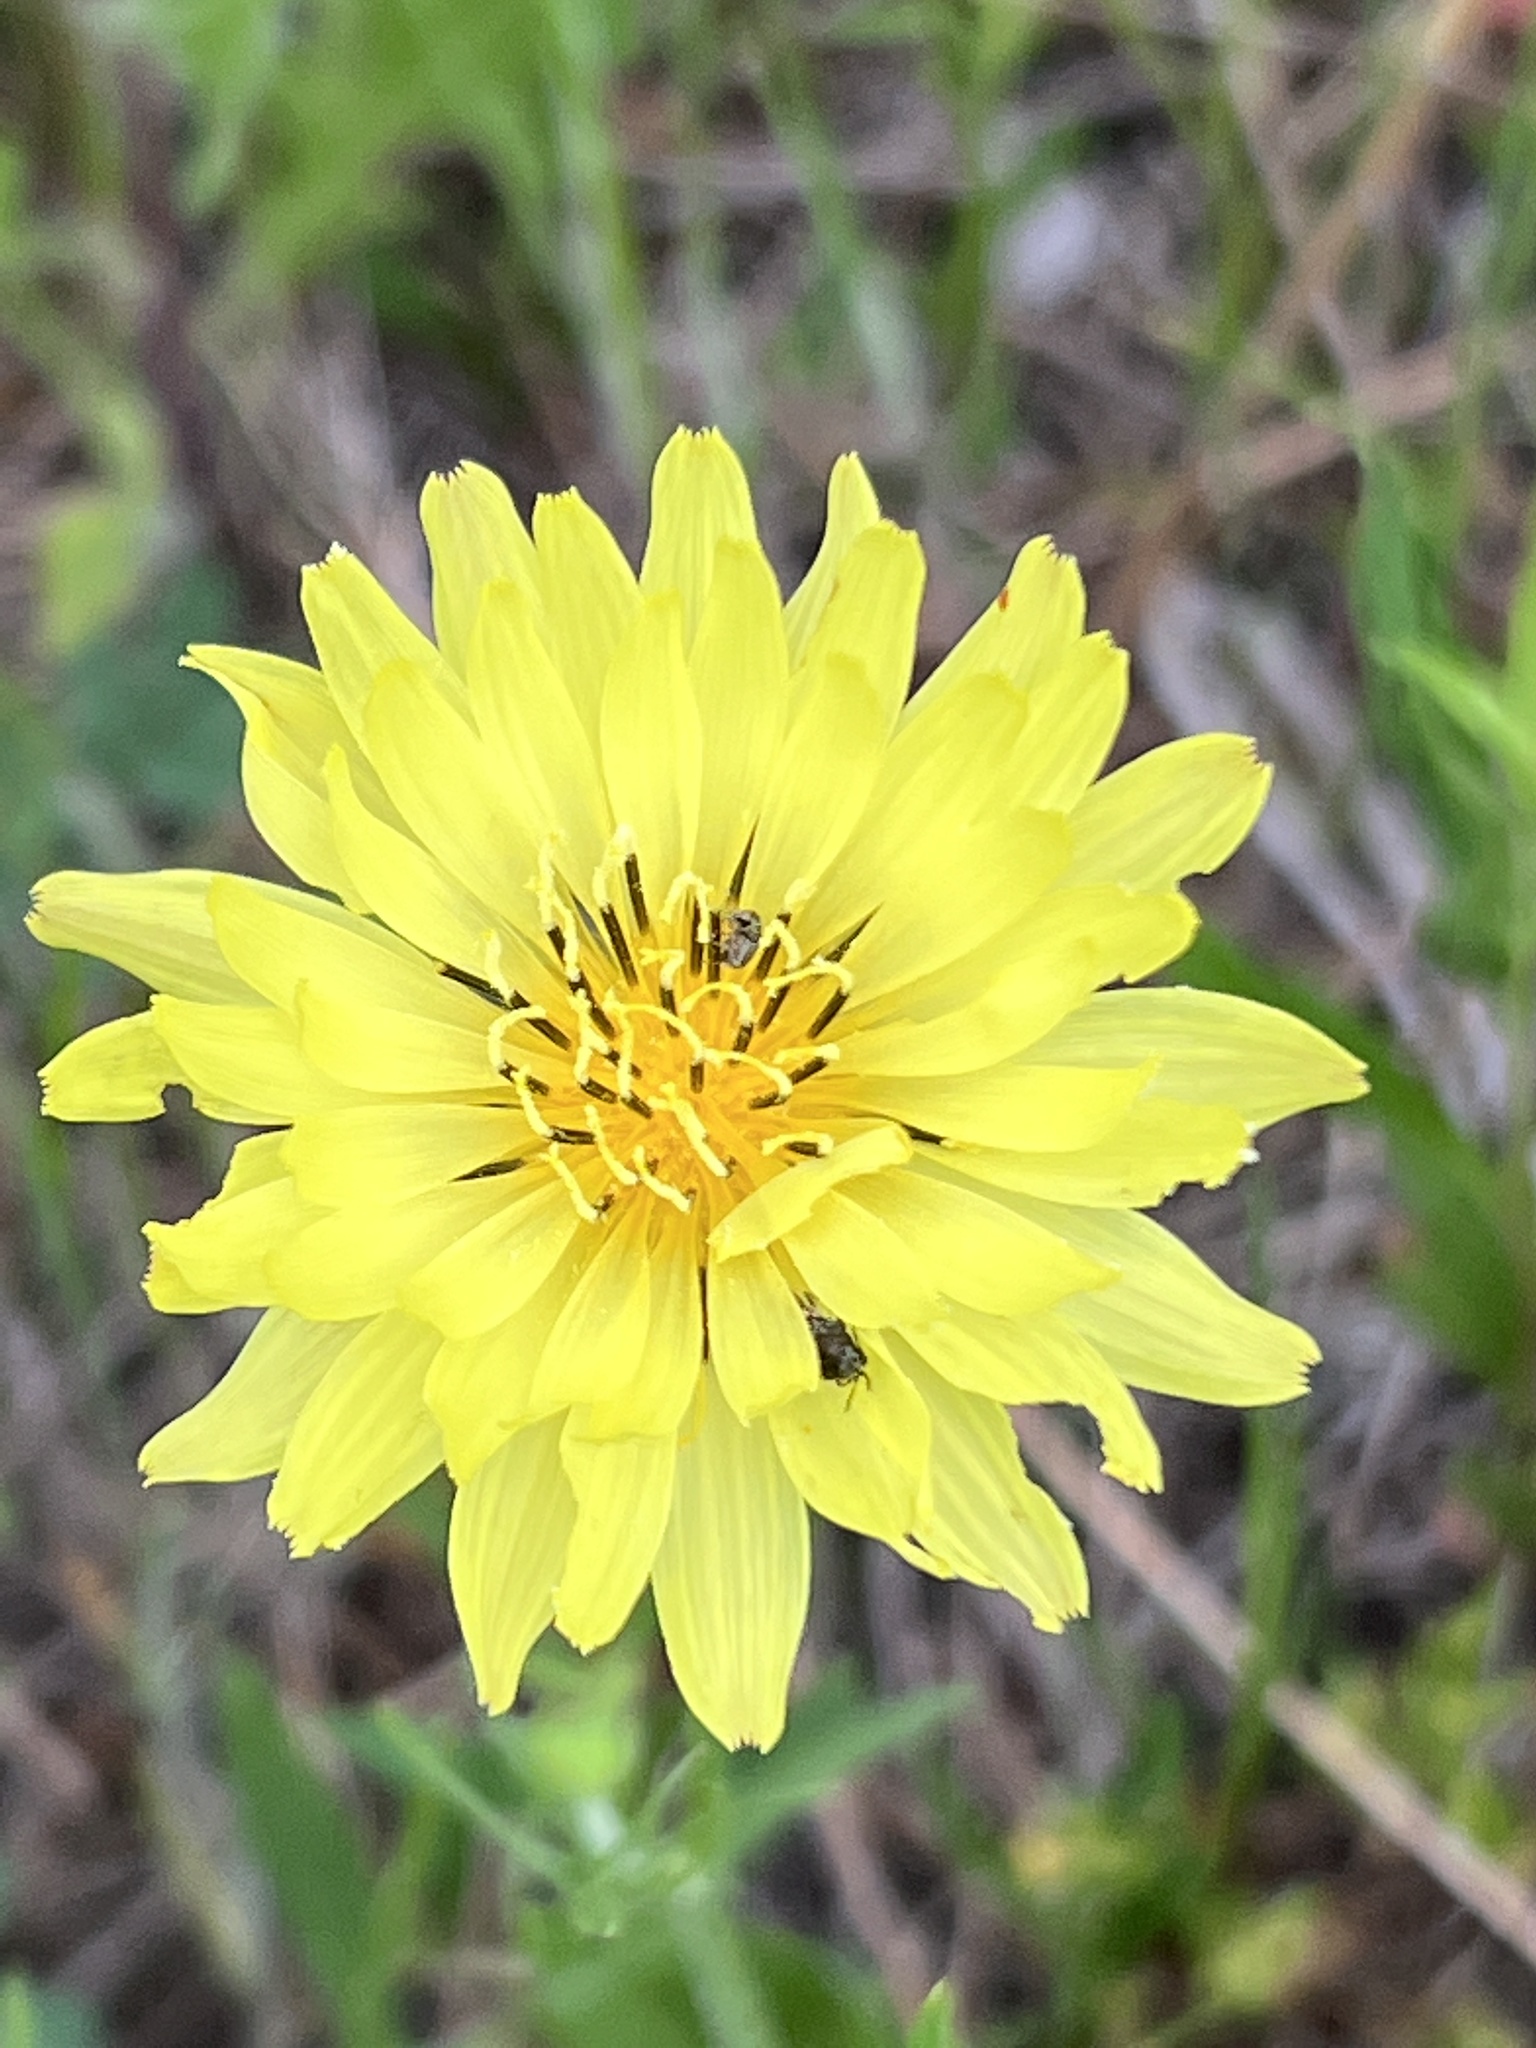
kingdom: Plantae
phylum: Tracheophyta
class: Magnoliopsida
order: Asterales
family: Asteraceae
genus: Pyrrhopappus
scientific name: Pyrrhopappus pauciflorus
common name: Texas false dandelion
